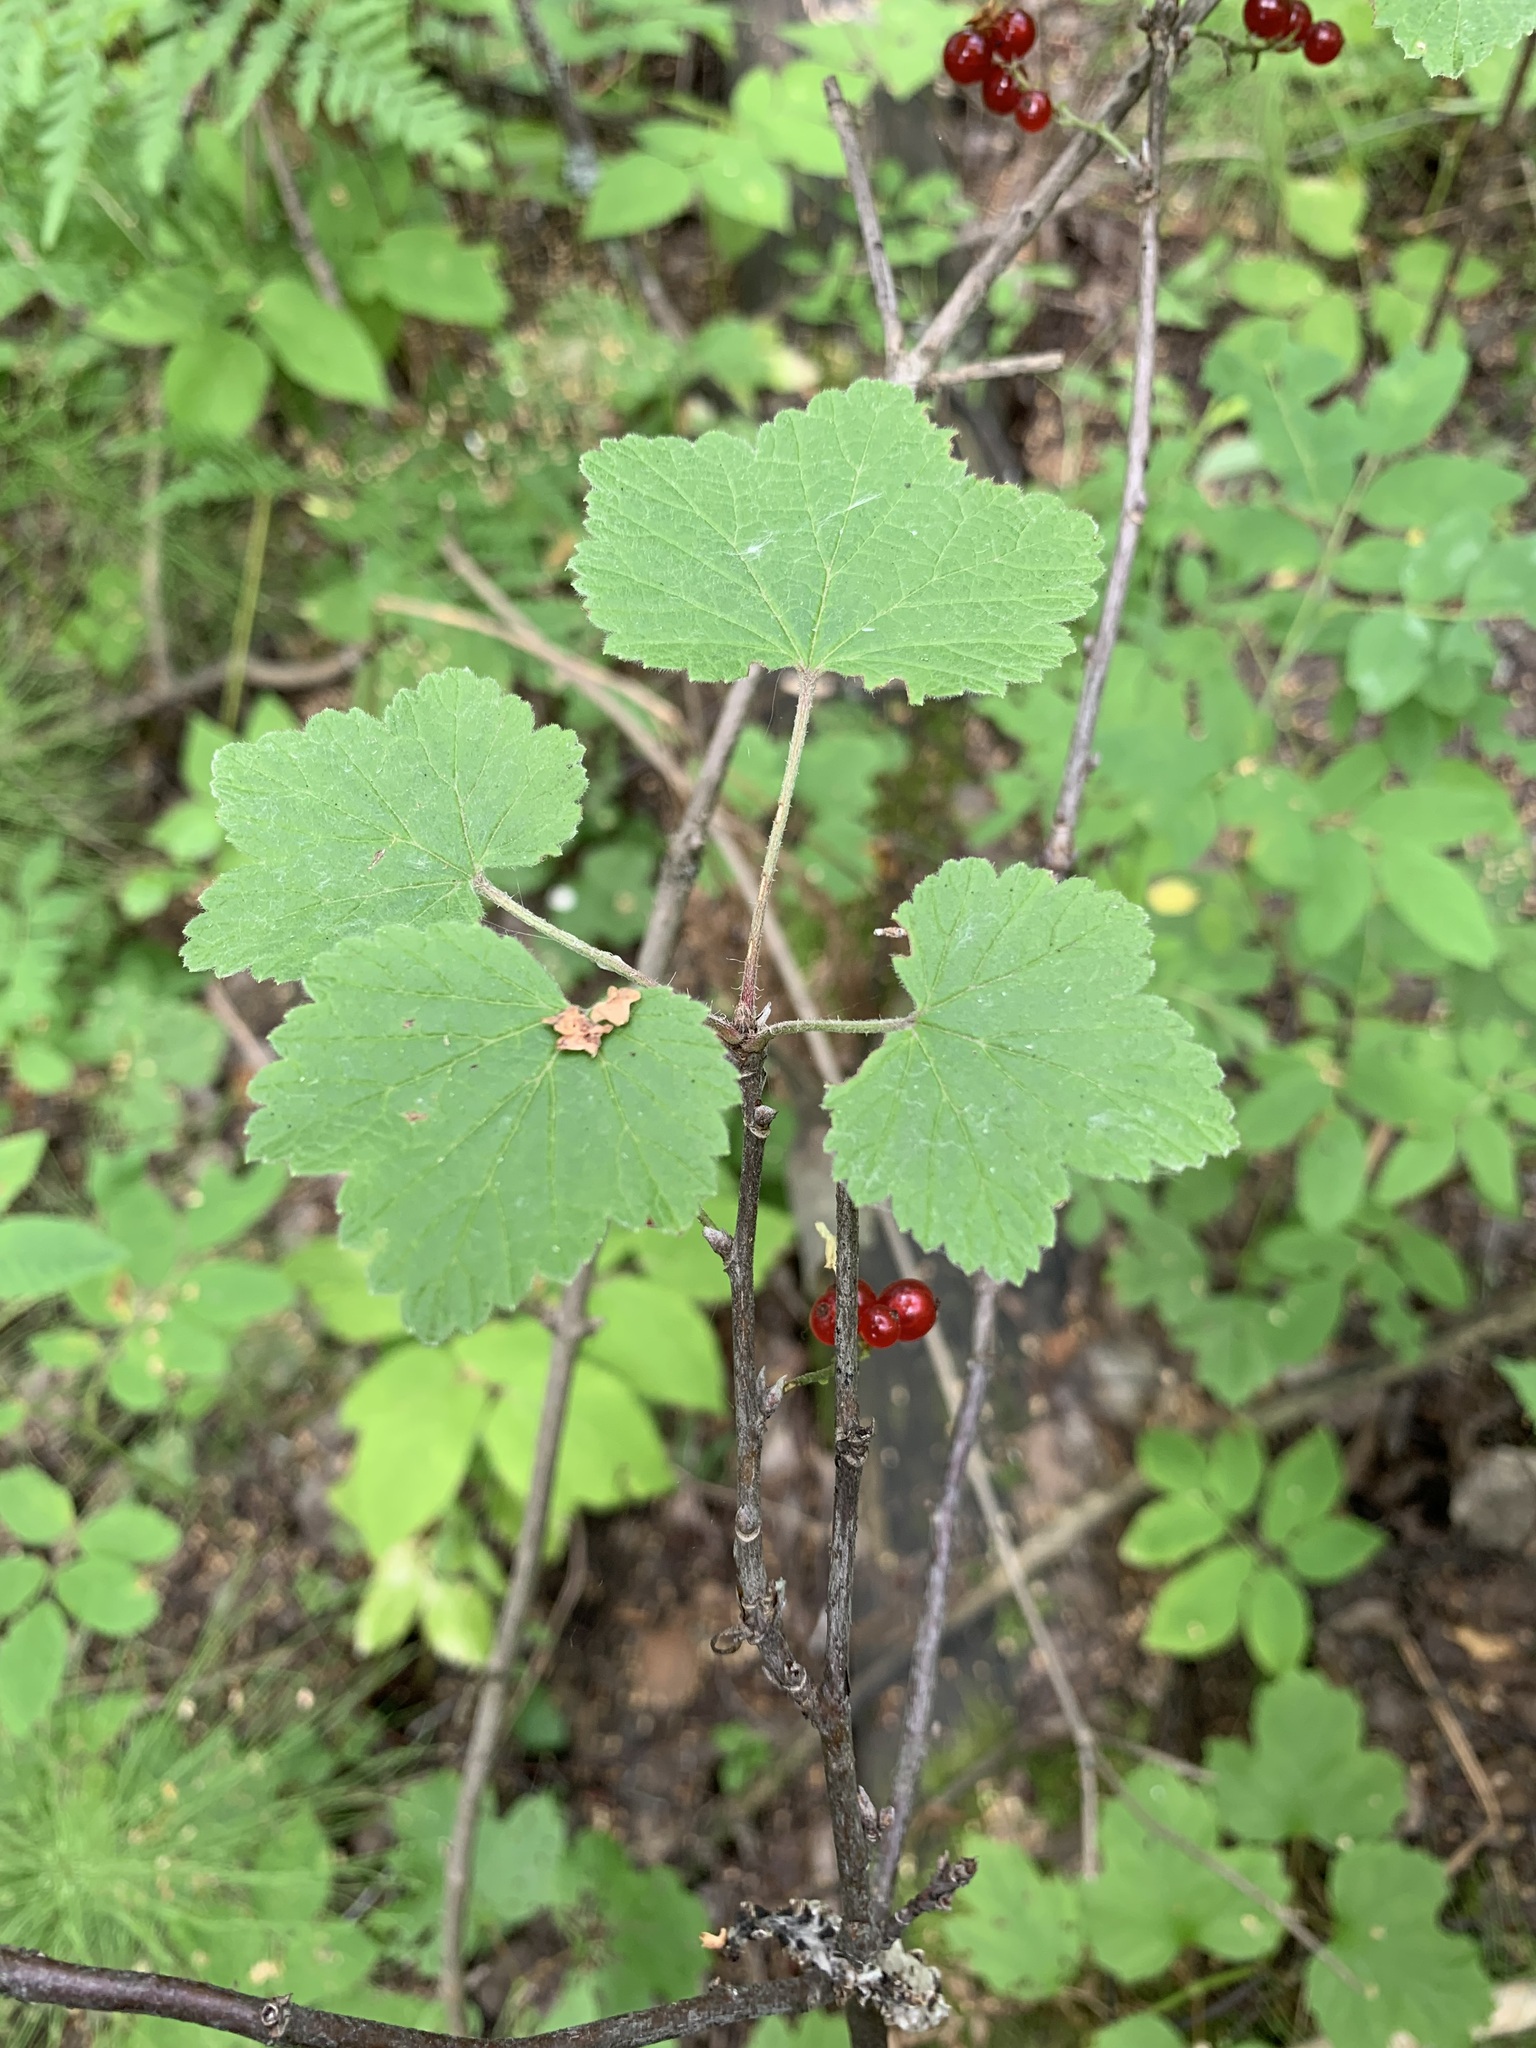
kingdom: Plantae
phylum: Tracheophyta
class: Magnoliopsida
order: Saxifragales
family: Grossulariaceae
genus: Ribes
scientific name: Ribes spicatum
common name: Downy currant
